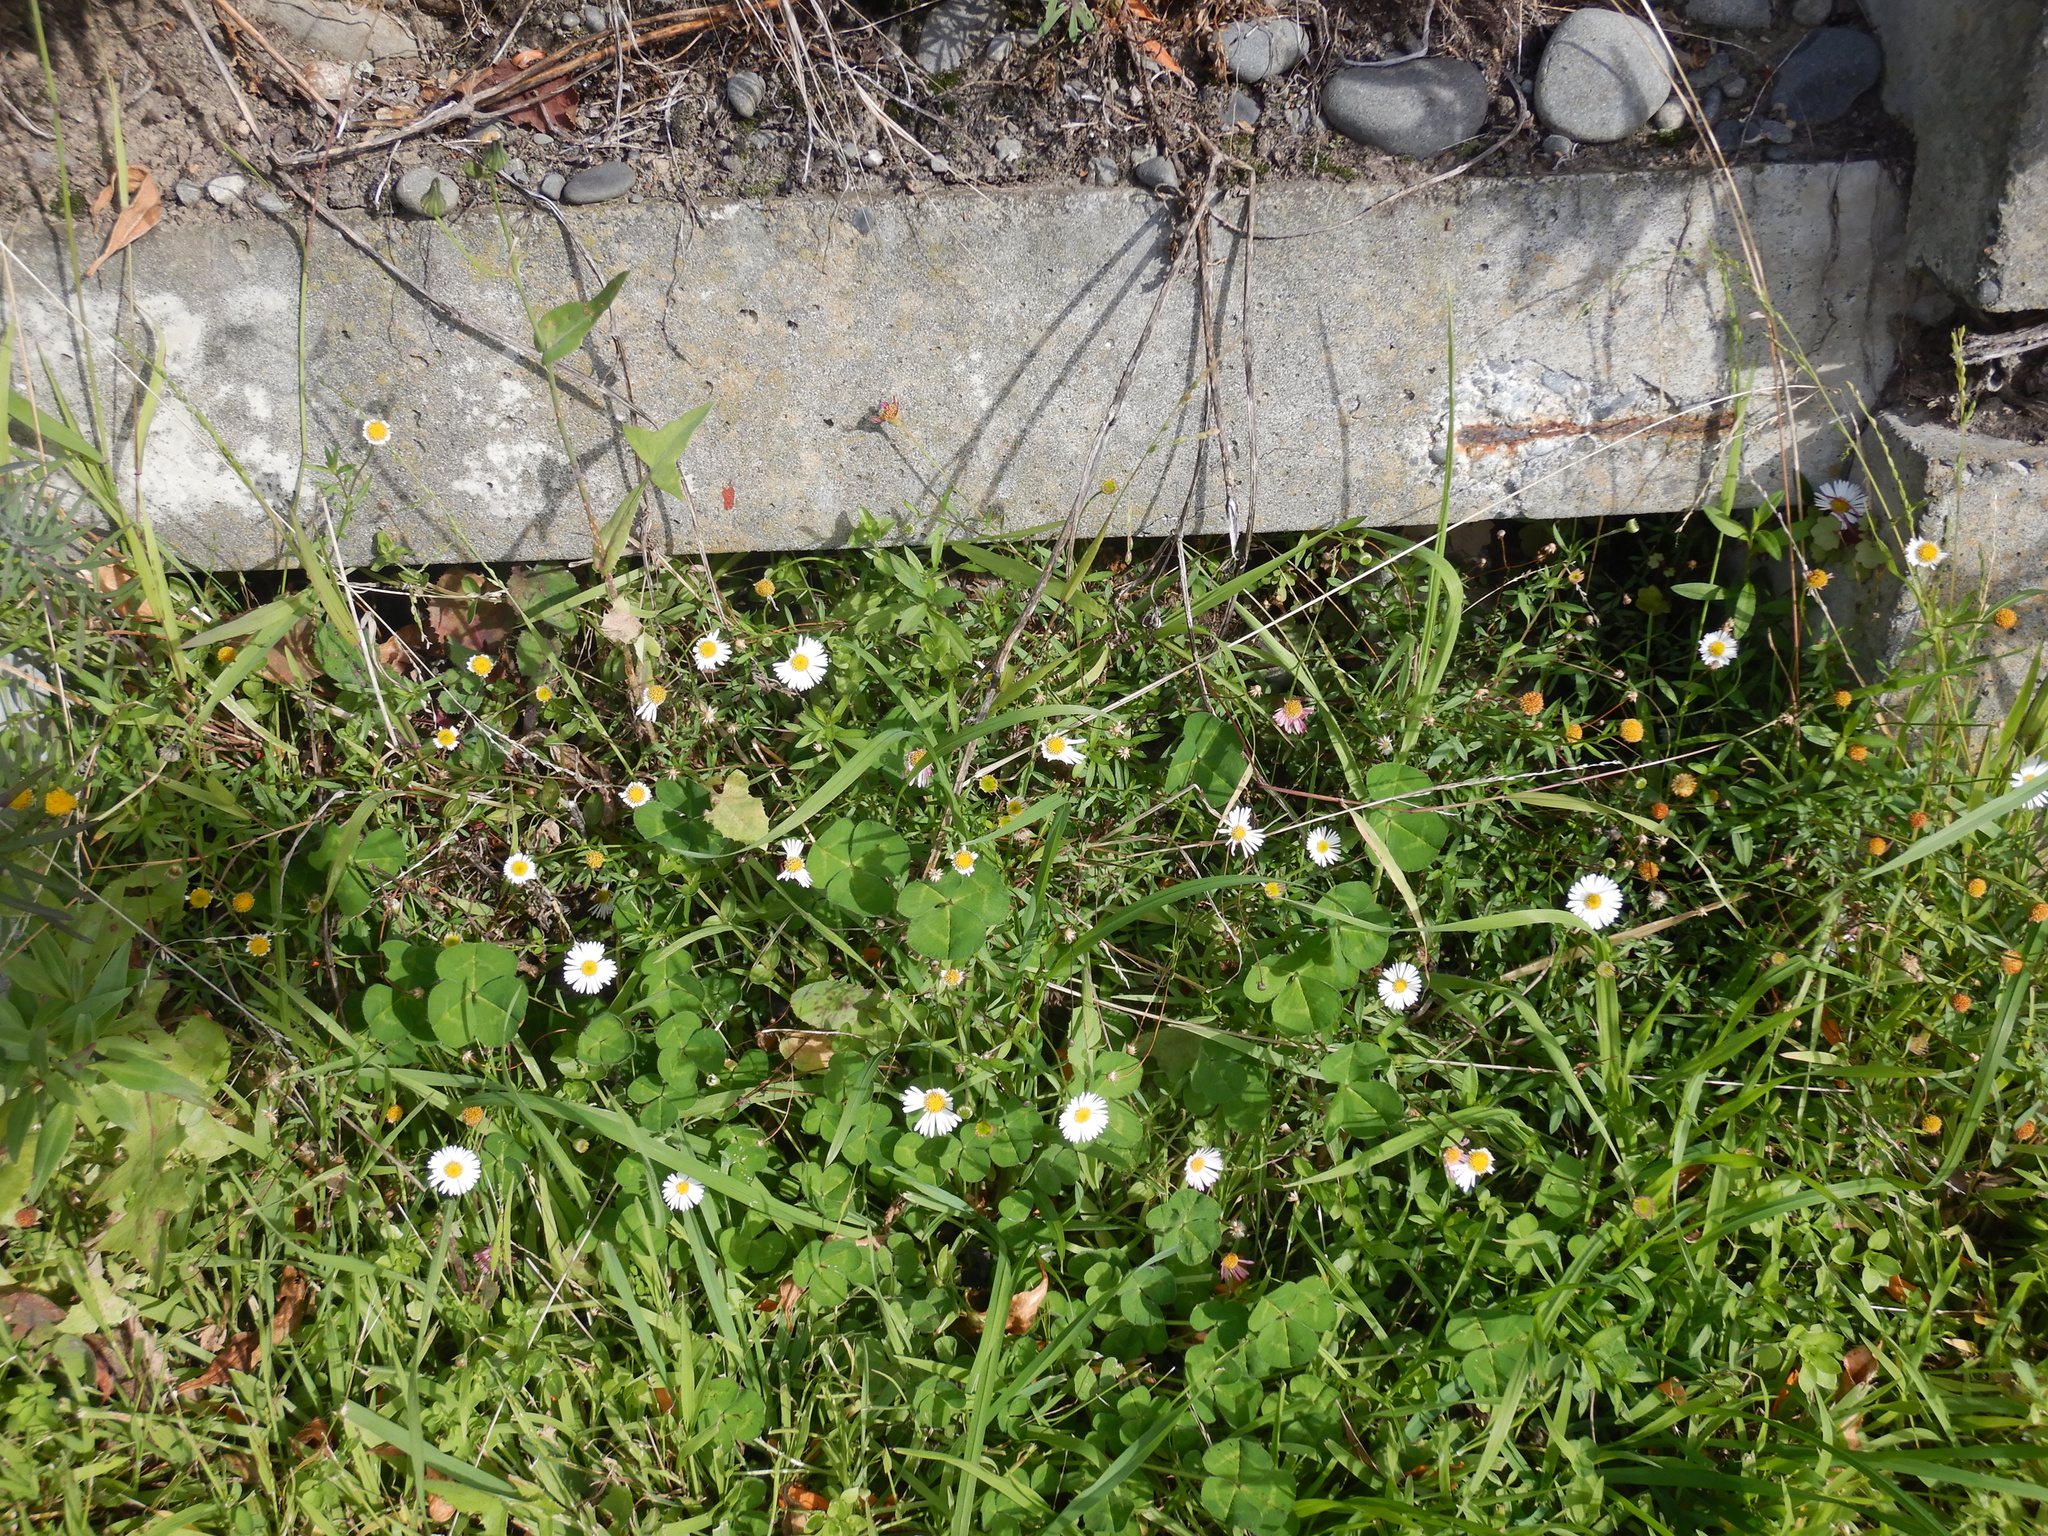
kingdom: Plantae
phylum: Tracheophyta
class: Magnoliopsida
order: Asterales
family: Asteraceae
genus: Erigeron
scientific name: Erigeron karvinskianus
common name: Mexican fleabane
